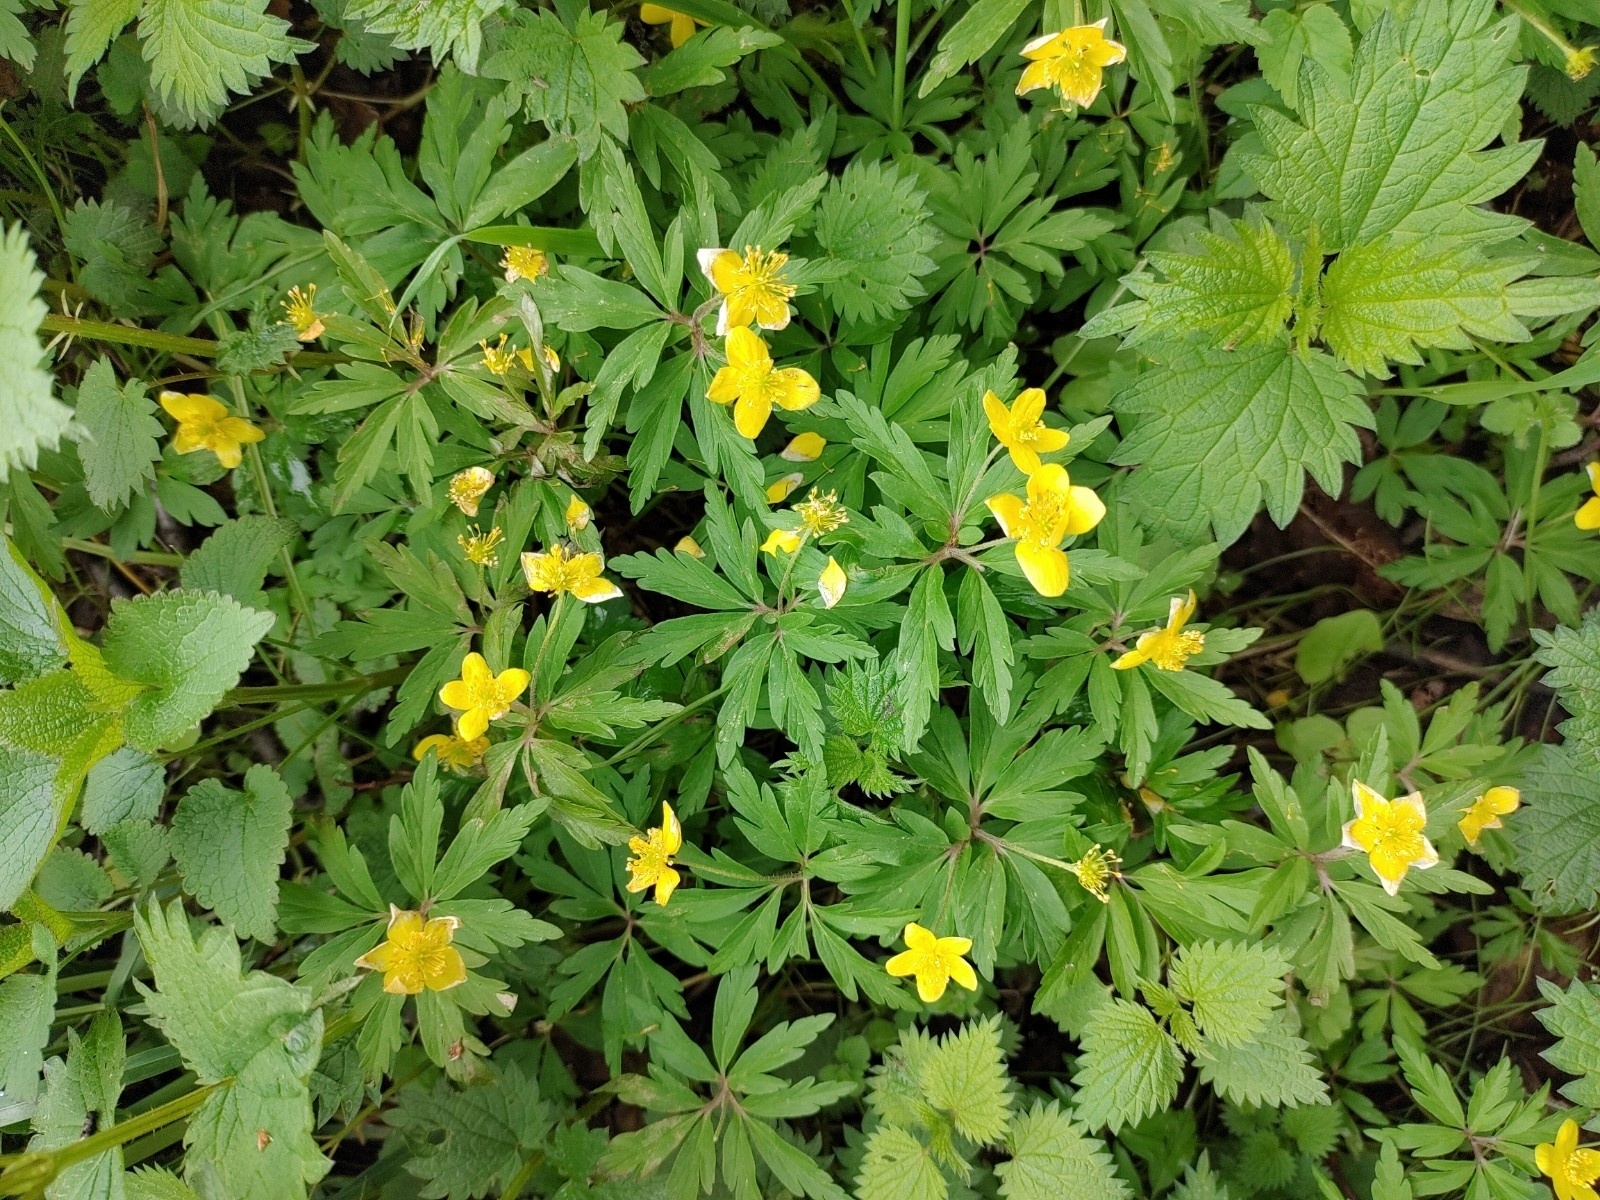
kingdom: Plantae
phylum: Tracheophyta
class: Magnoliopsida
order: Ranunculales
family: Ranunculaceae
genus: Anemone
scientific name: Anemone ranunculoides
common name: Yellow anemone
